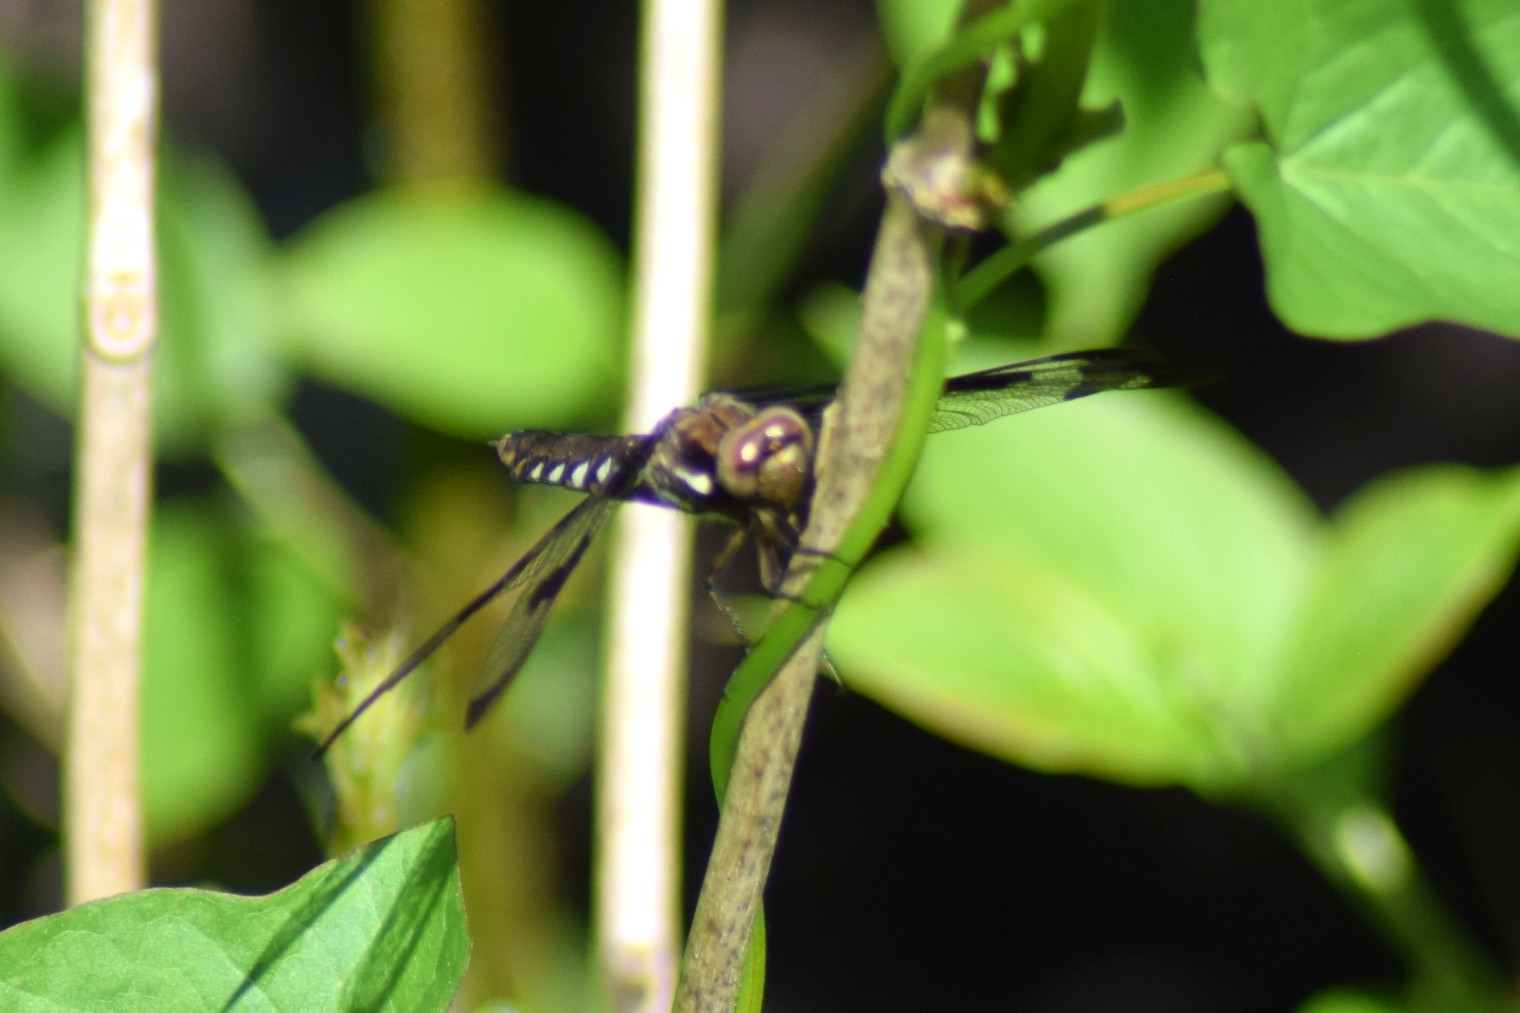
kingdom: Animalia
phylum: Arthropoda
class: Insecta
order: Odonata
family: Libellulidae
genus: Plathemis
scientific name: Plathemis lydia
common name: Common whitetail
